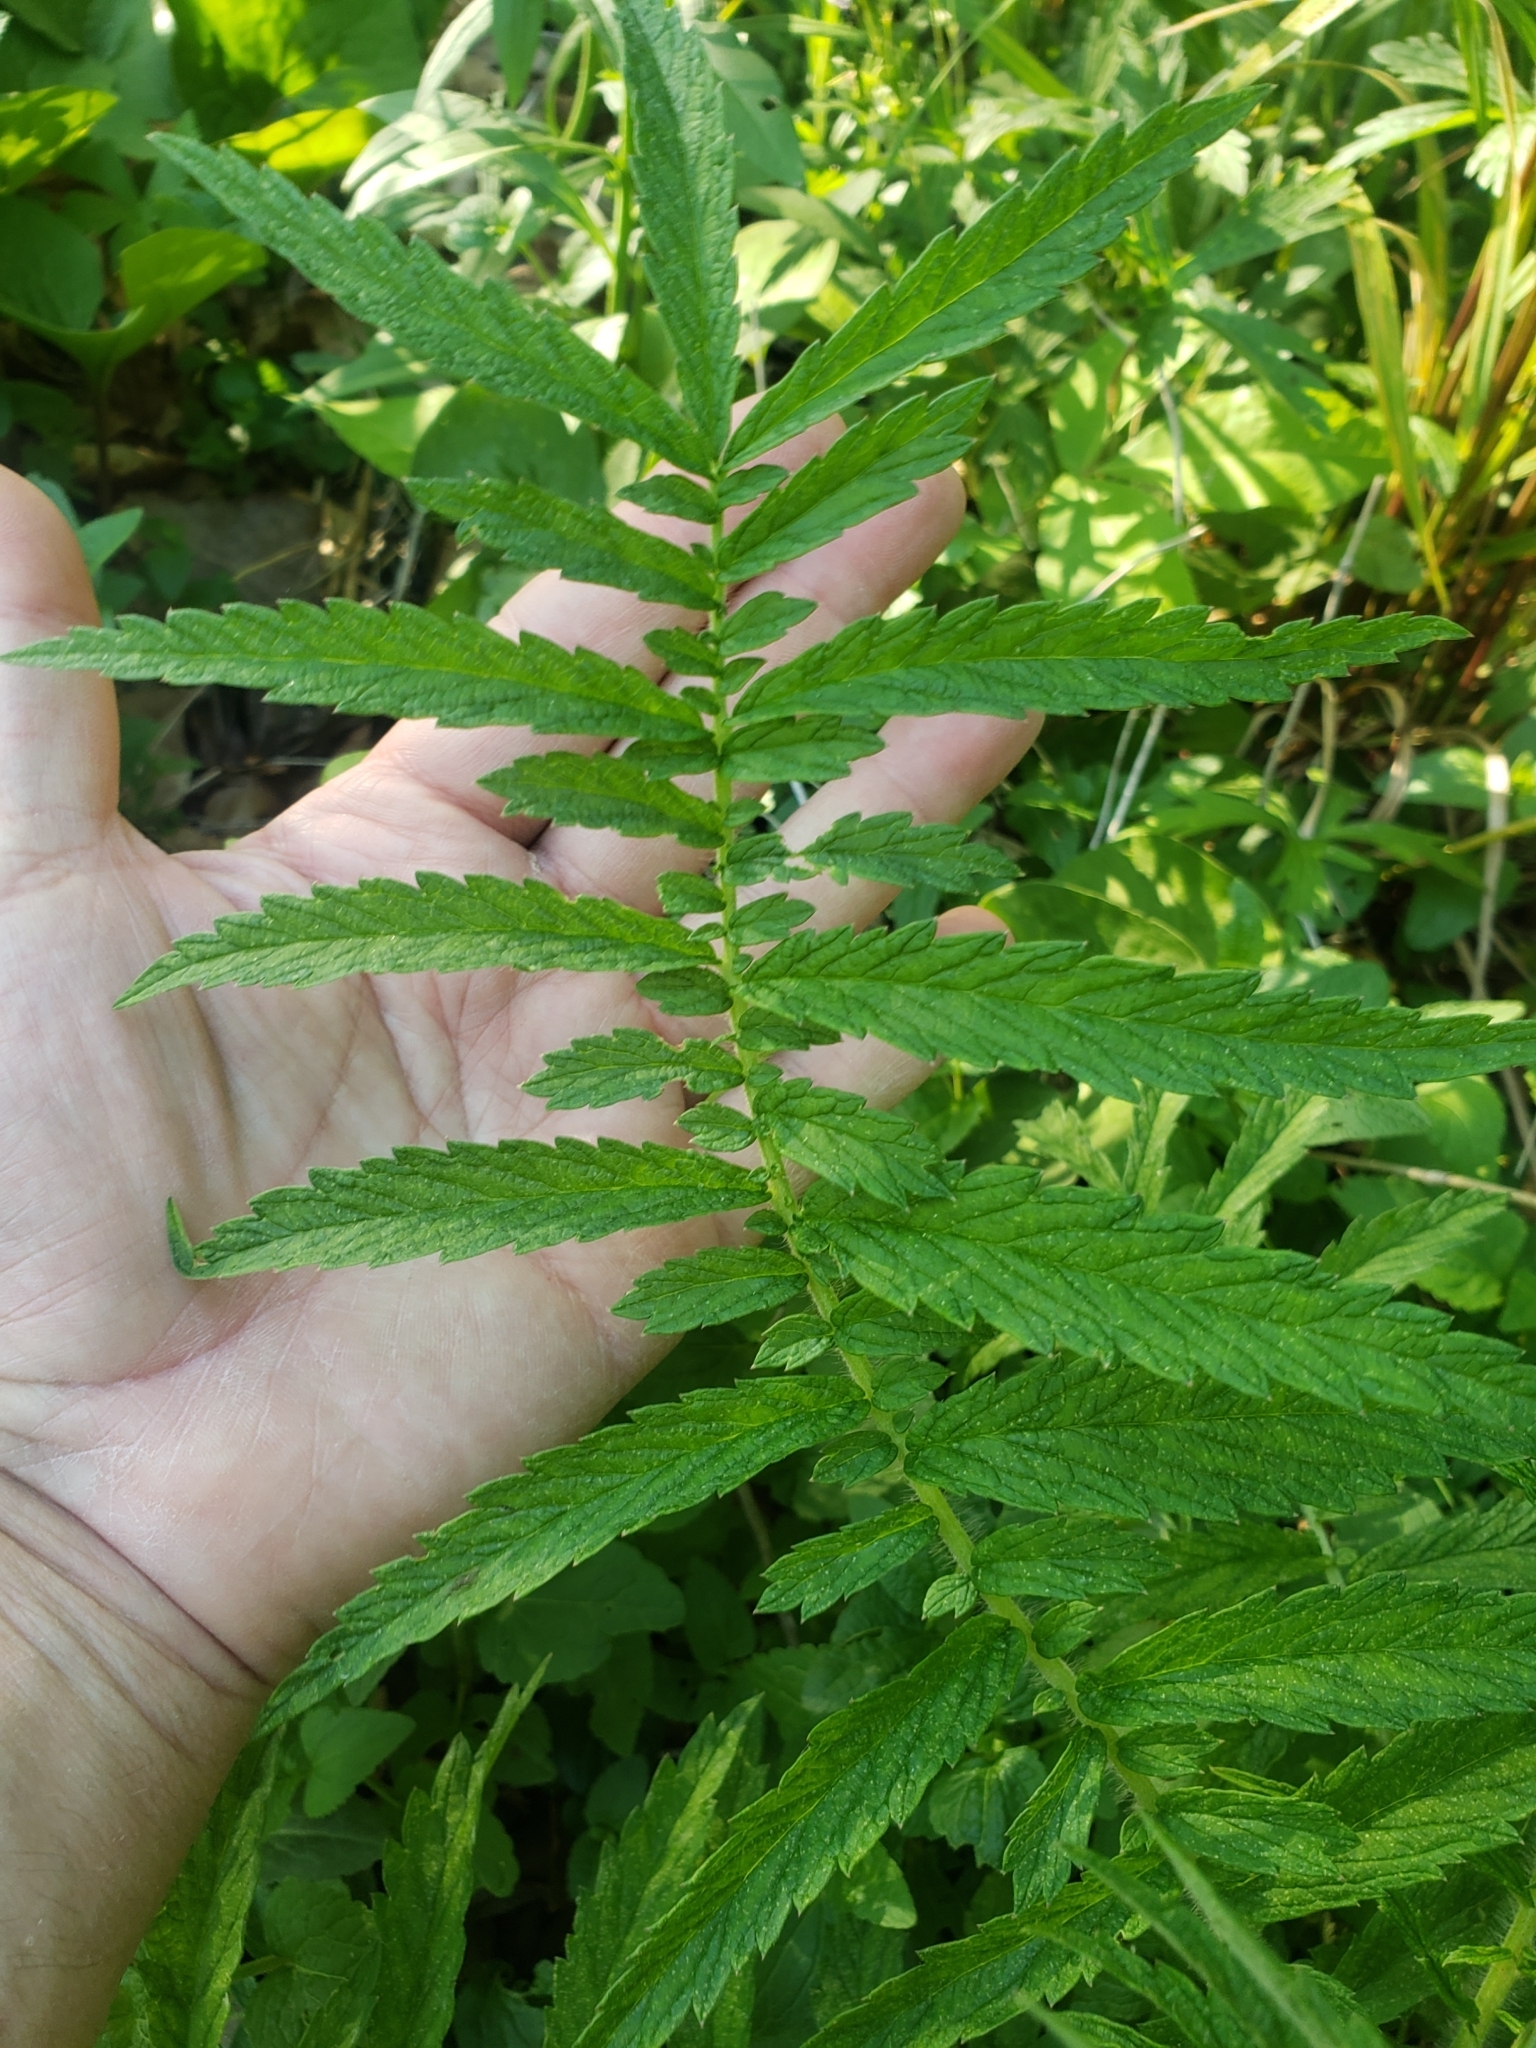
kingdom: Plantae
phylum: Tracheophyta
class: Magnoliopsida
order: Rosales
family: Rosaceae
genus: Agrimonia
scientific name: Agrimonia parviflora
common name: Harvest-lice
